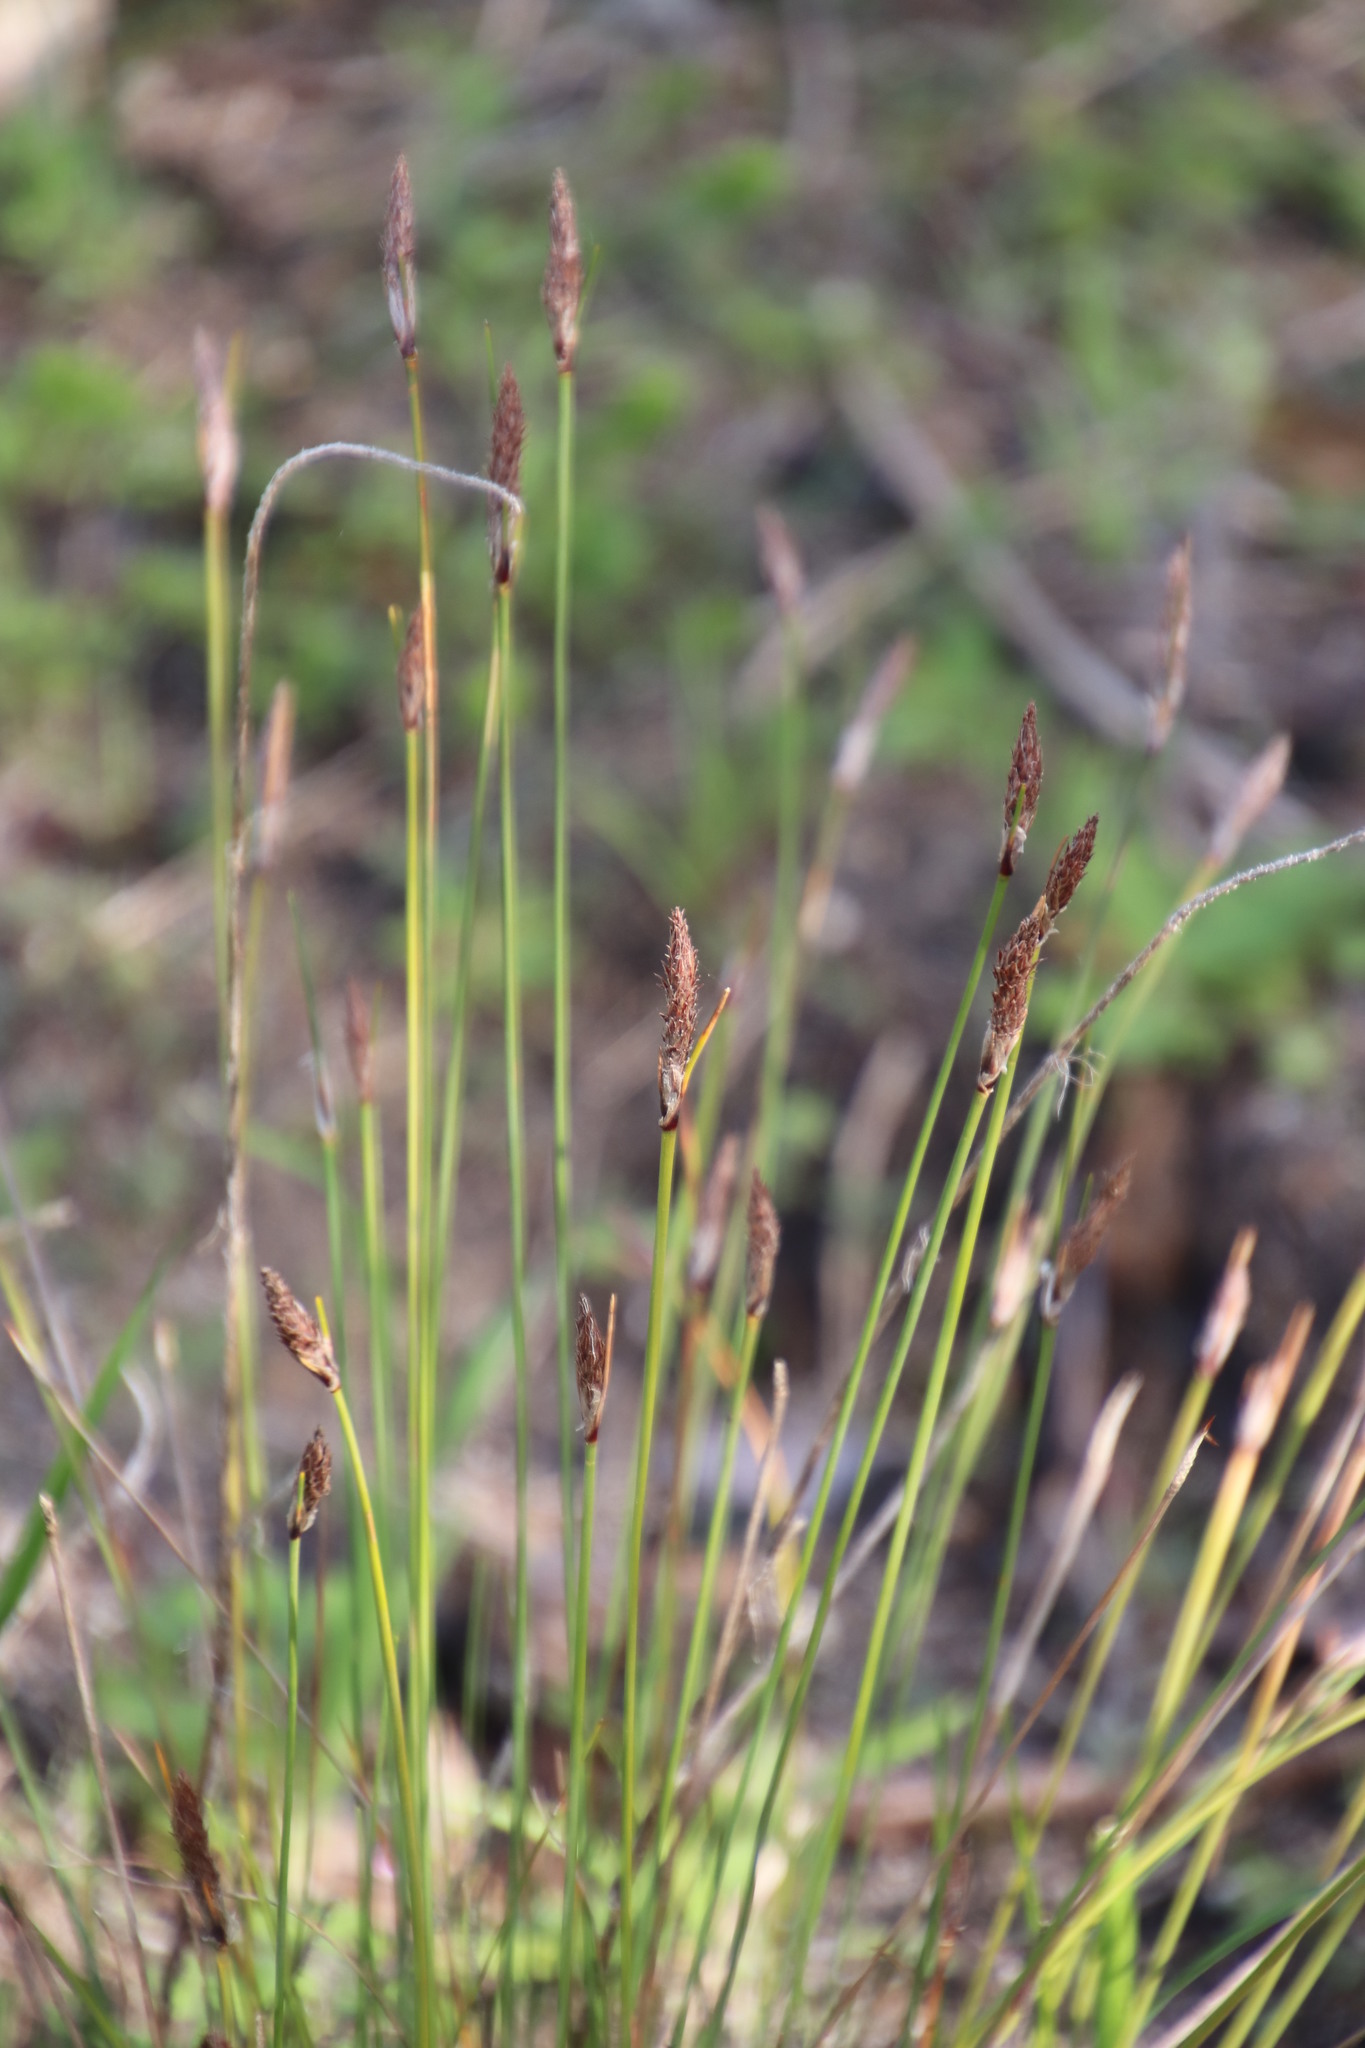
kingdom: Plantae
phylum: Tracheophyta
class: Liliopsida
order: Poales
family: Cyperaceae
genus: Ficinia
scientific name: Ficinia deusta
